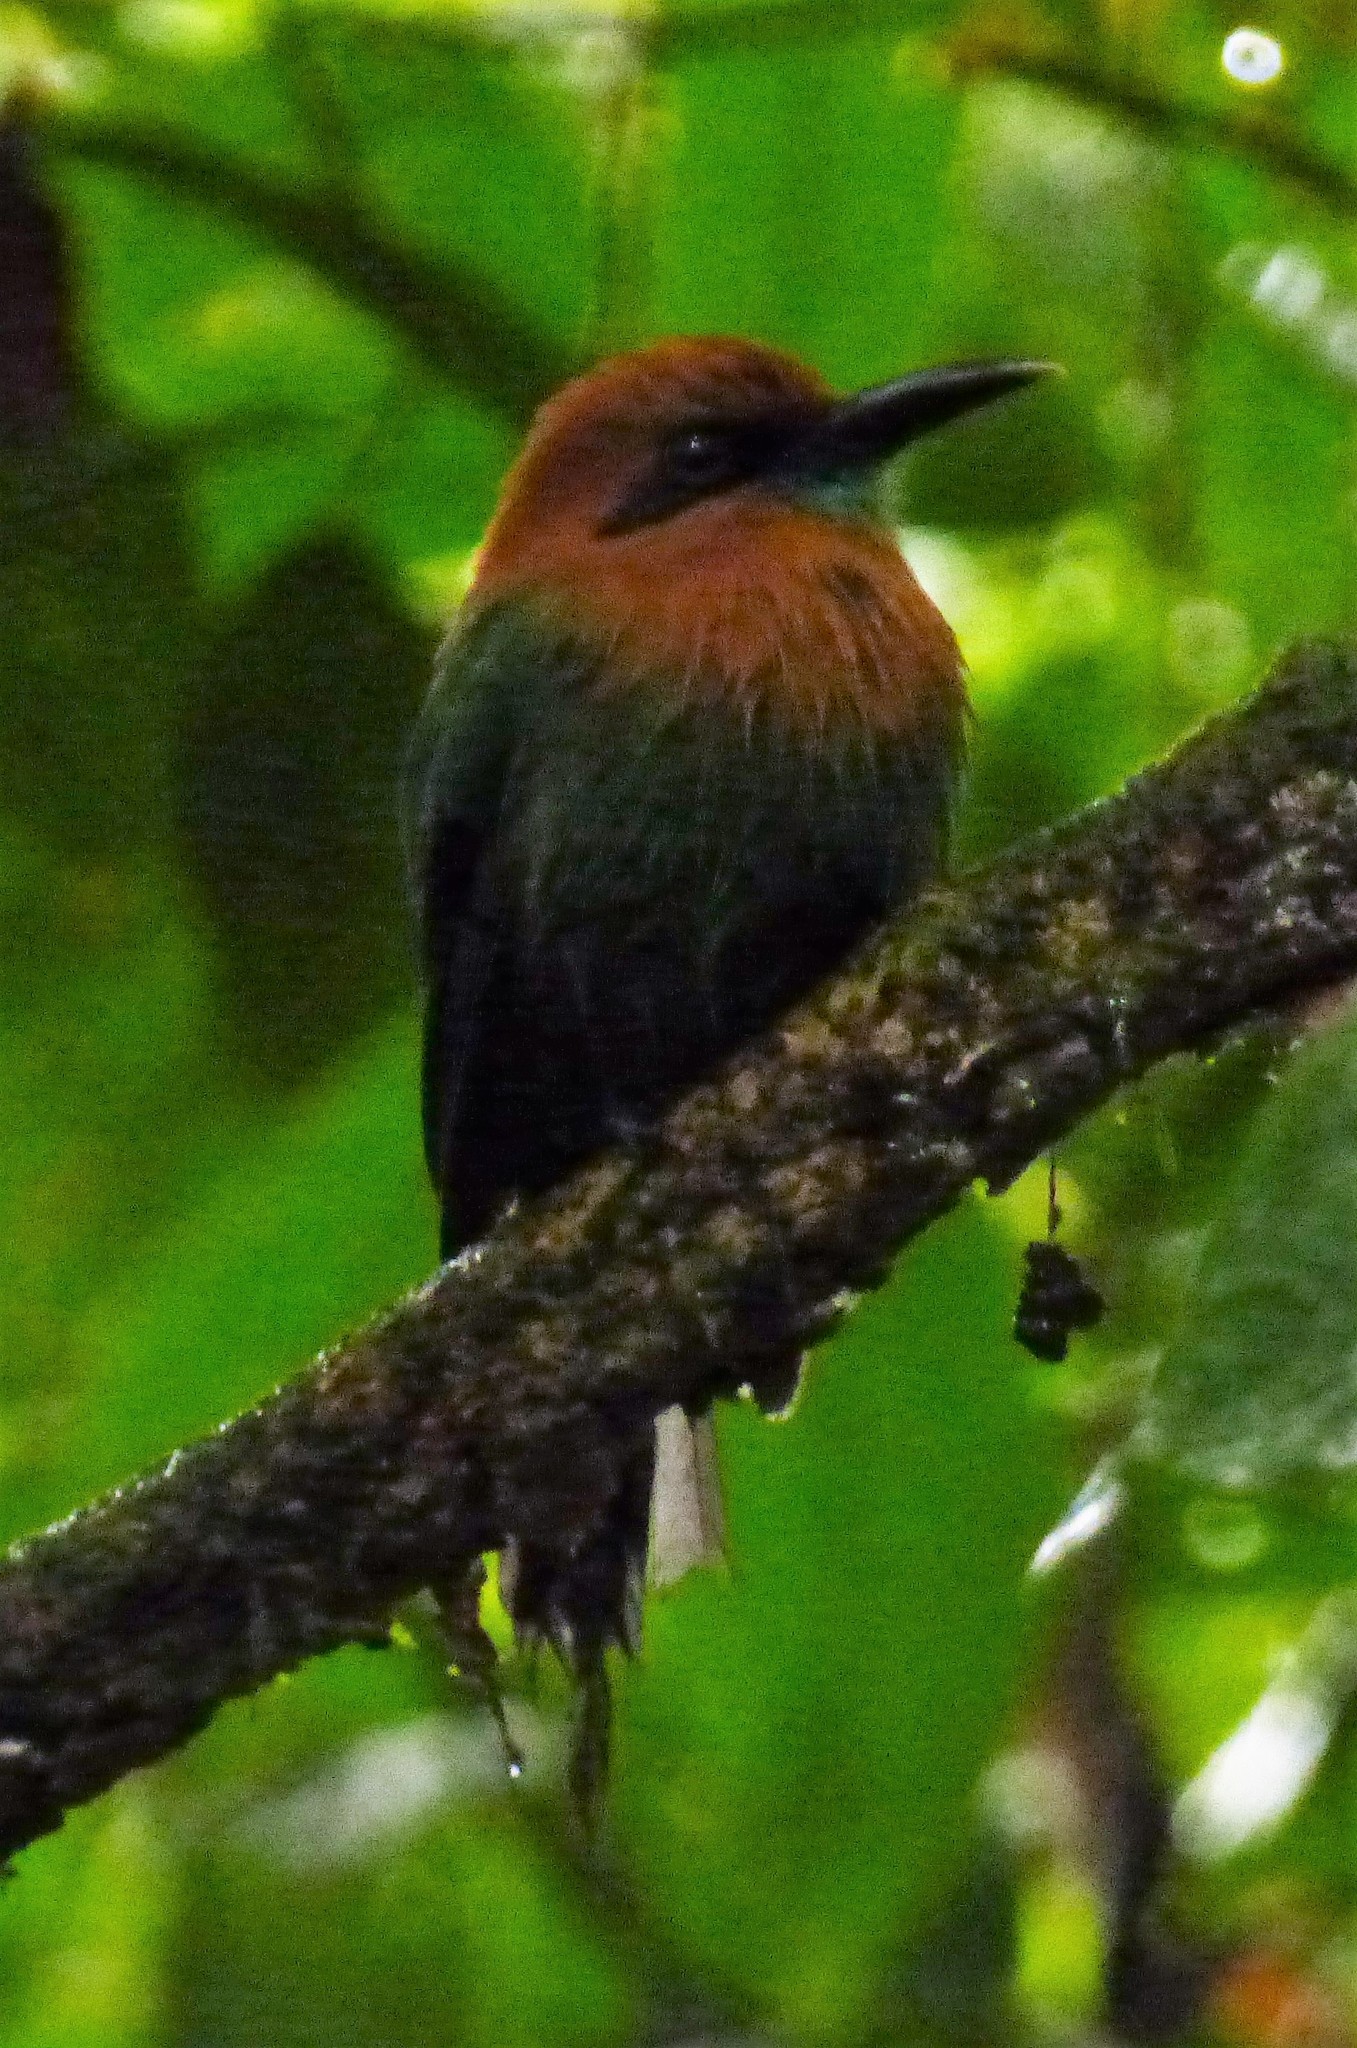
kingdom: Animalia
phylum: Chordata
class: Aves
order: Coraciiformes
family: Momotidae
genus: Electron
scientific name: Electron platyrhynchum
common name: Broad-billed motmot
